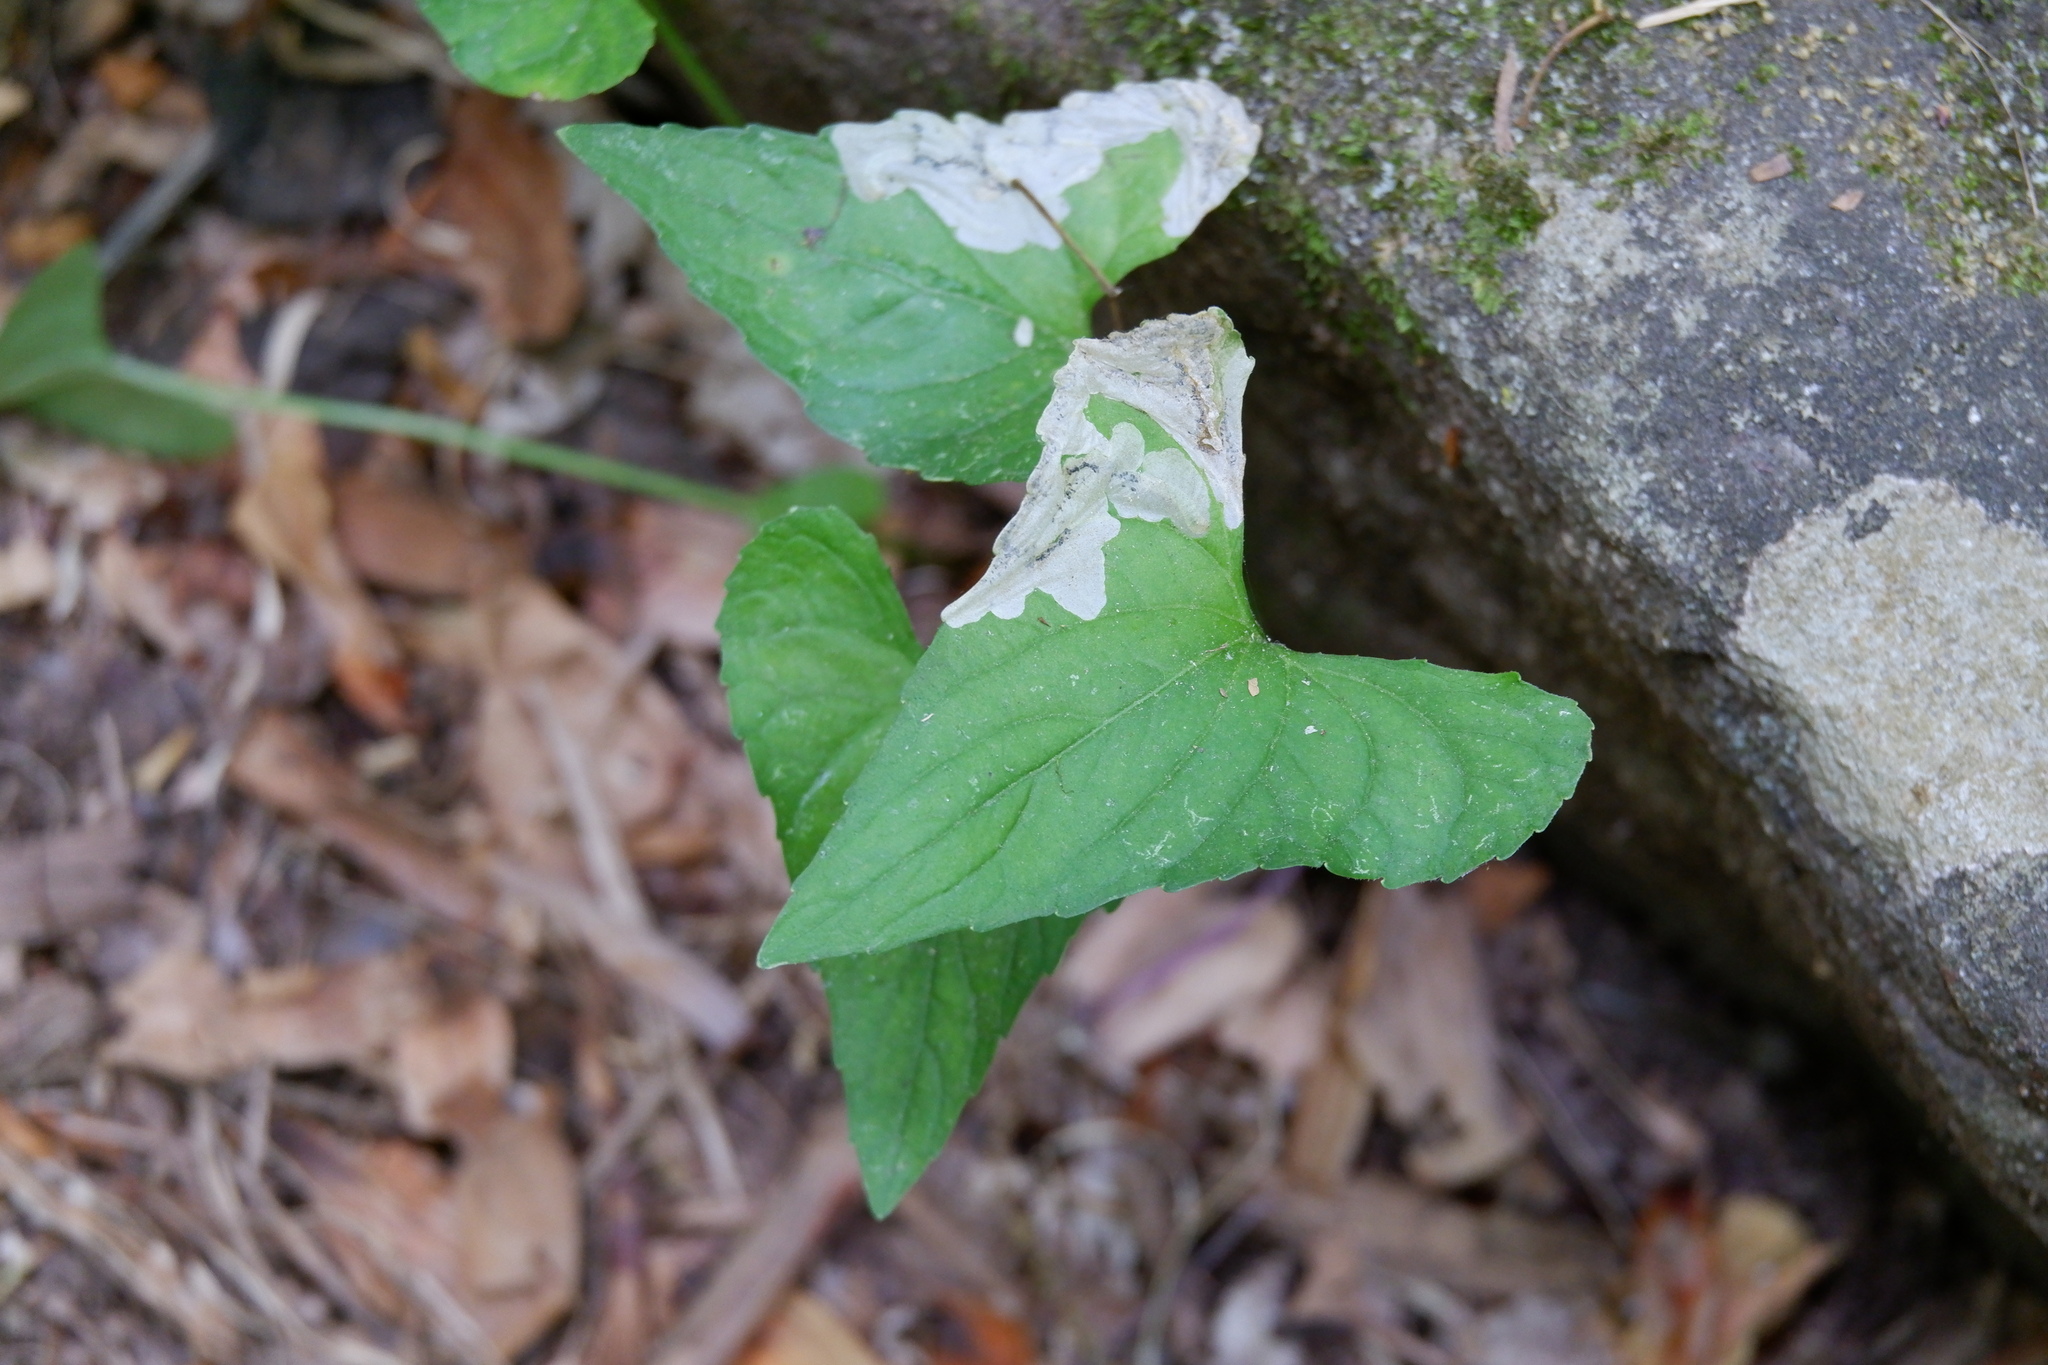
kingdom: Animalia
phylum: Arthropoda
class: Insecta
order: Hymenoptera
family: Tenthredinidae
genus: Nefusa
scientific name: Nefusa ambigua
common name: Violet leafmining sawfly
